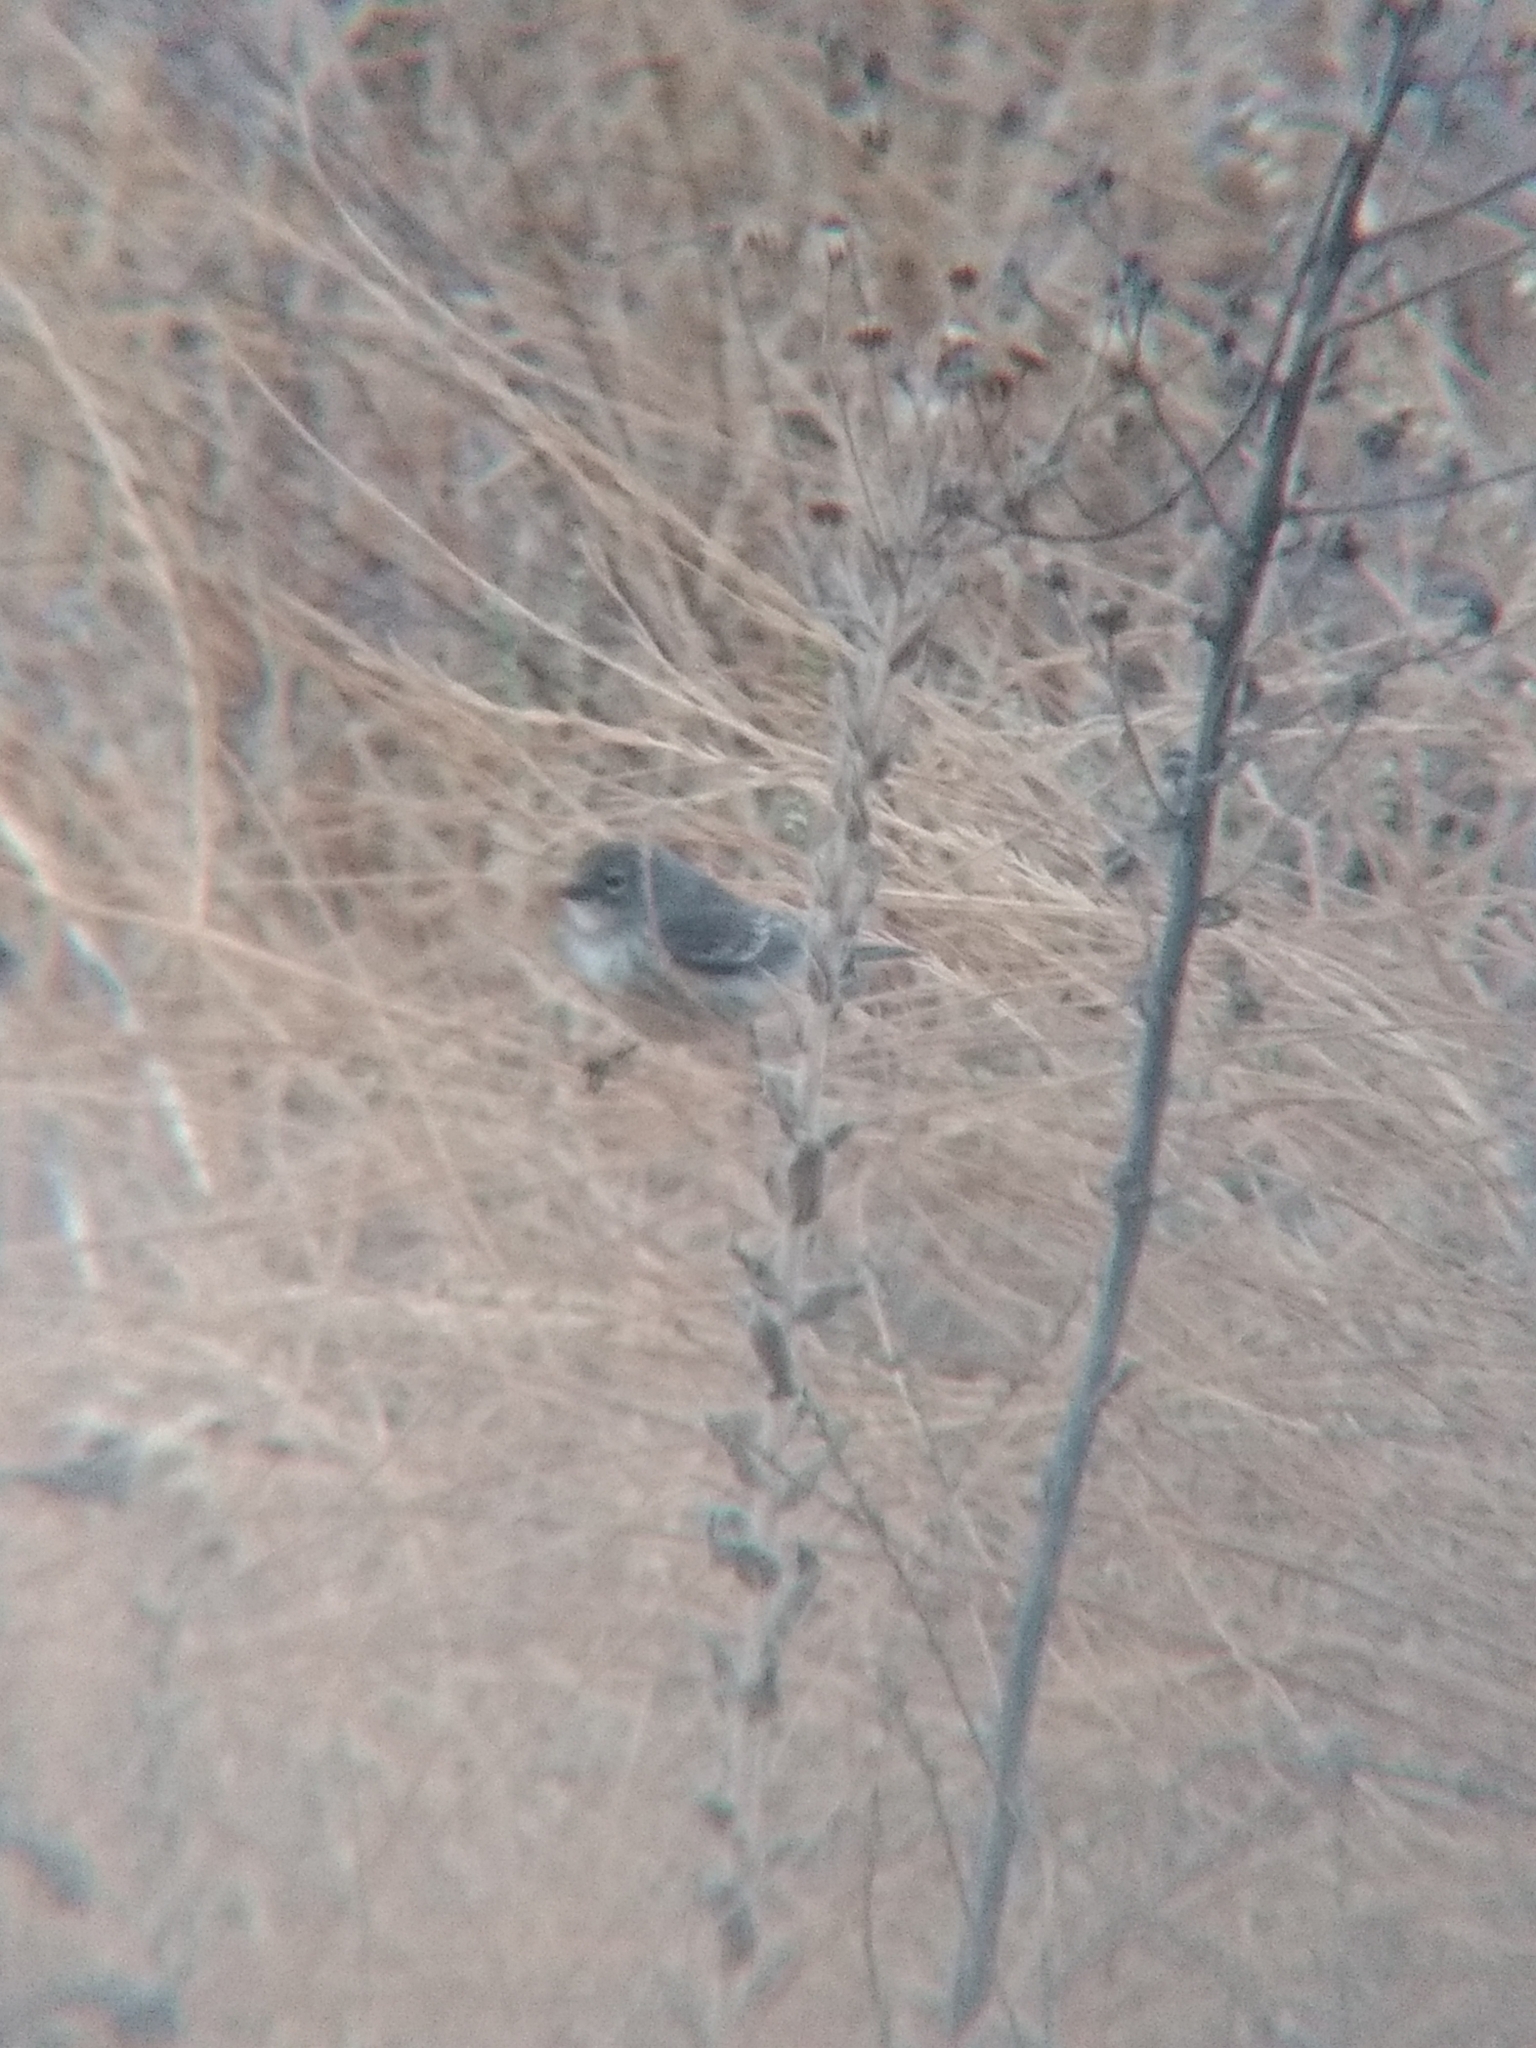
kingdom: Animalia
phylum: Chordata
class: Aves
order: Passeriformes
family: Parulidae
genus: Setophaga
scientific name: Setophaga coronata
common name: Myrtle warbler
